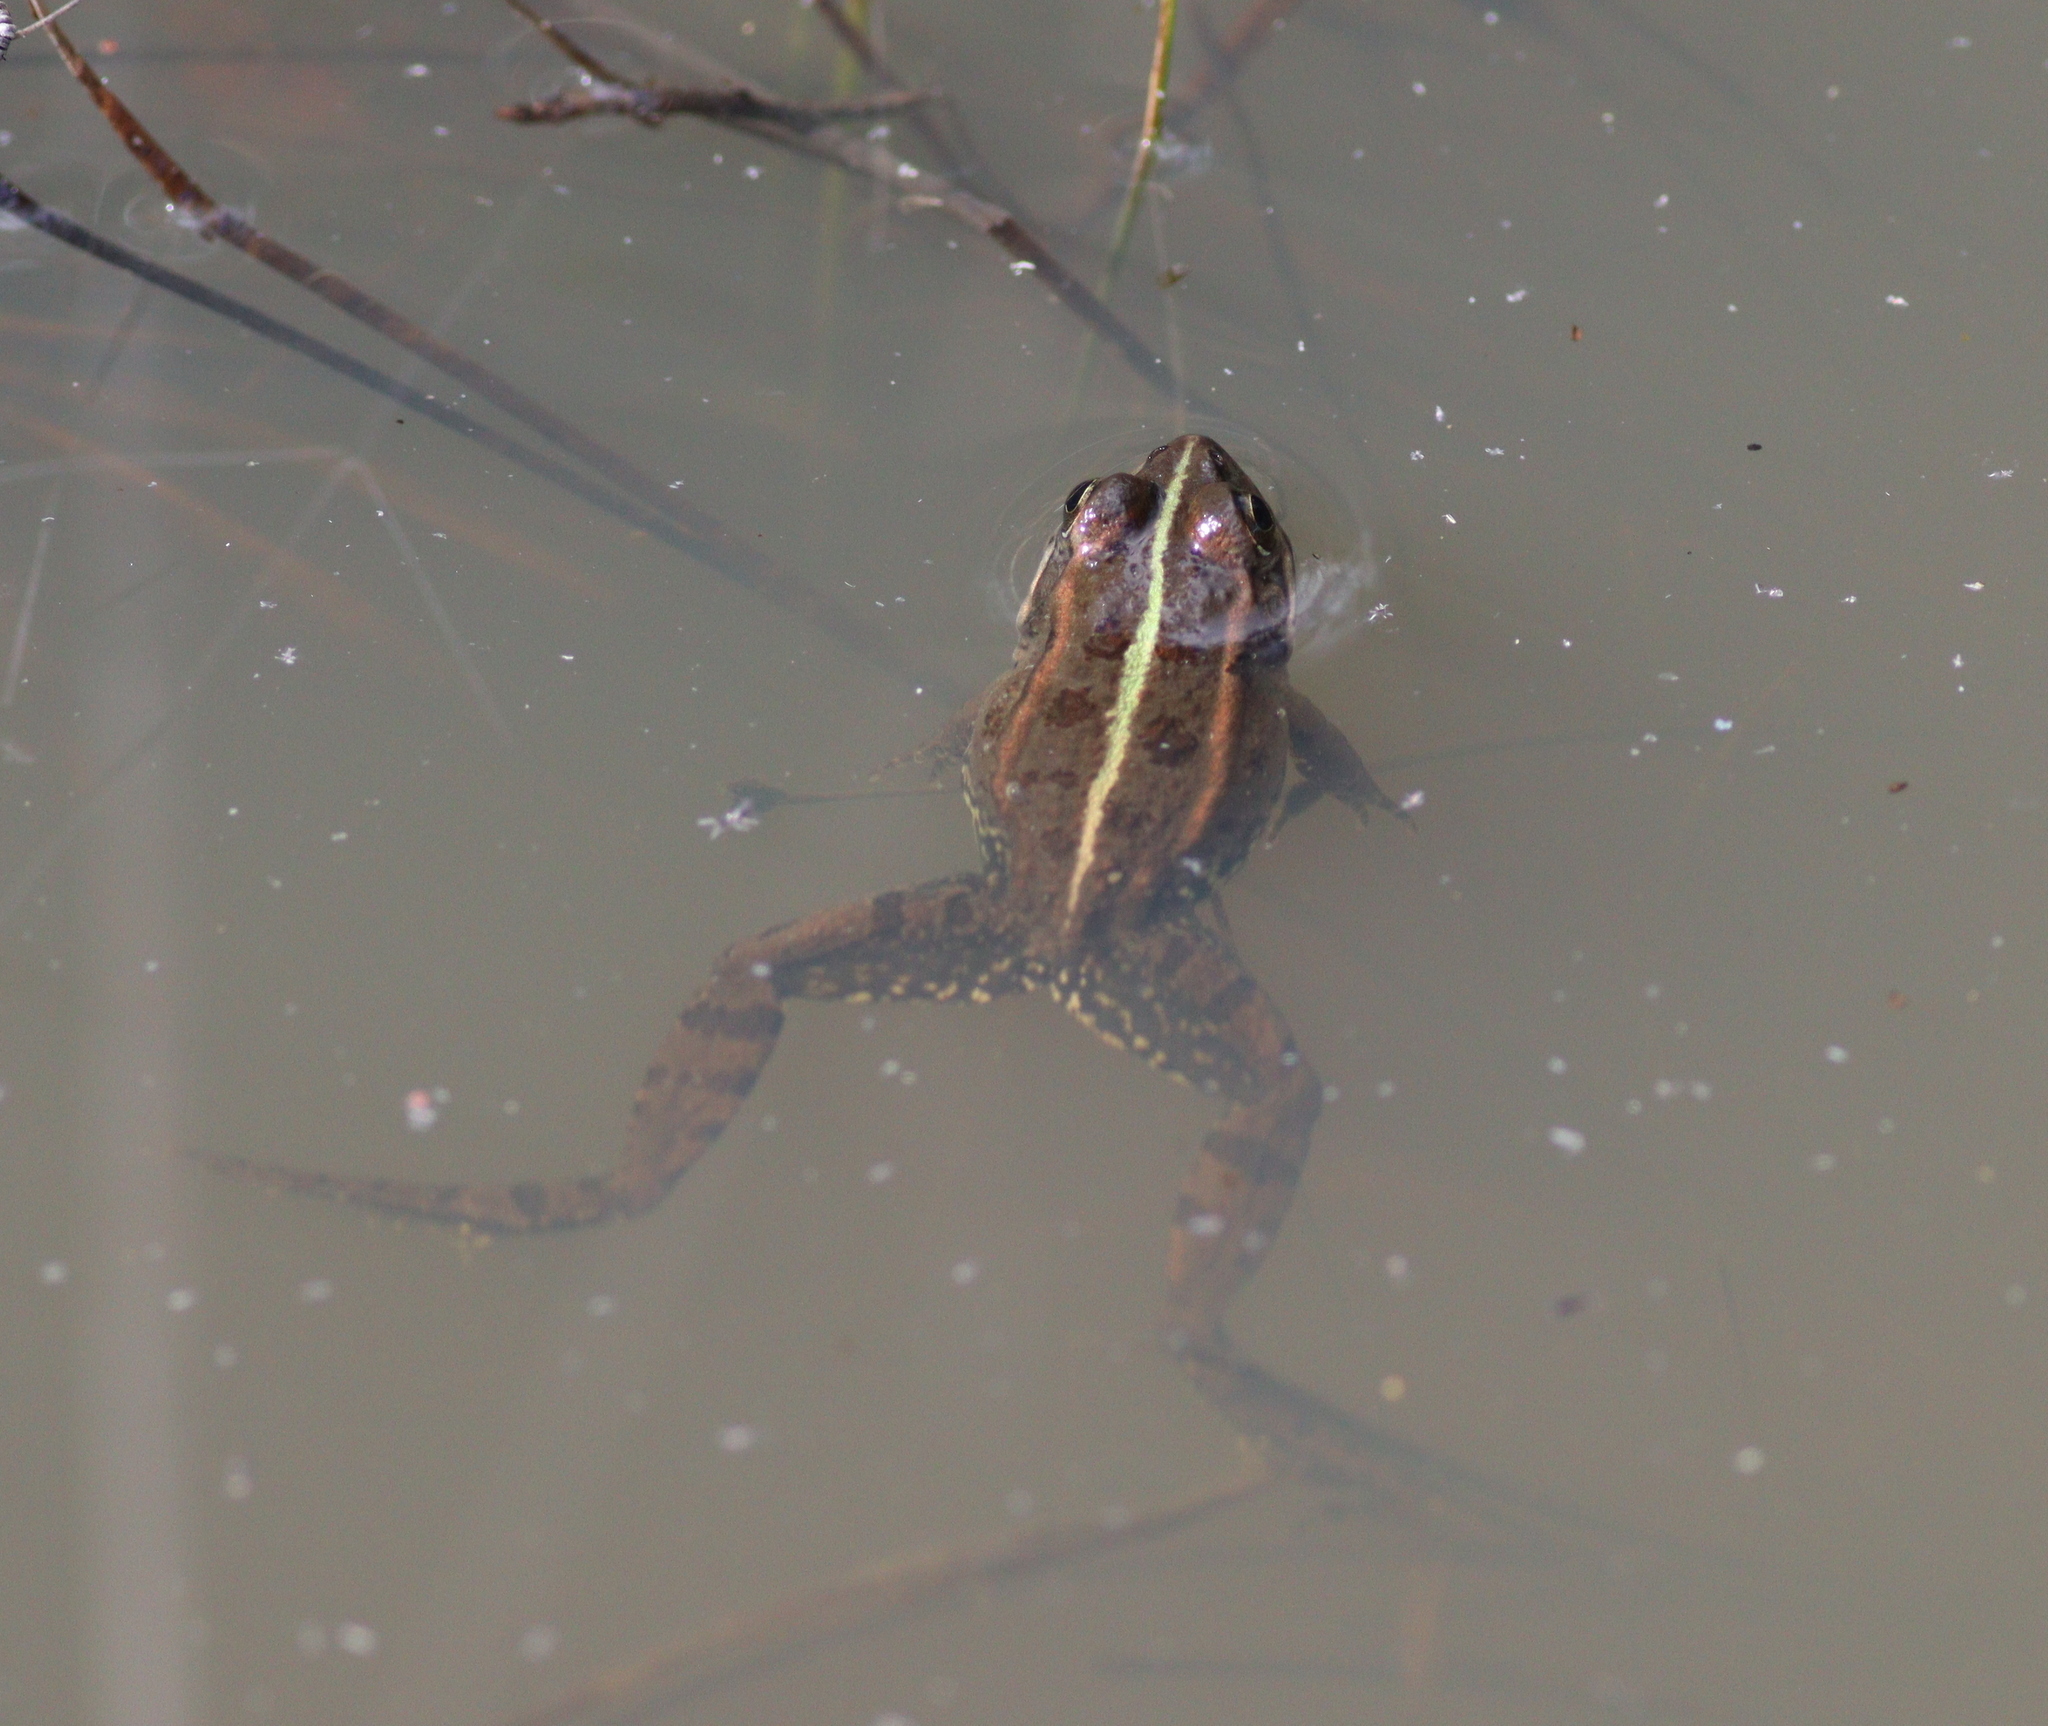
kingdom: Animalia
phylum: Chordata
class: Amphibia
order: Anura
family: Ranidae
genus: Pelophylax
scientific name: Pelophylax perezi
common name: Perez's frog
